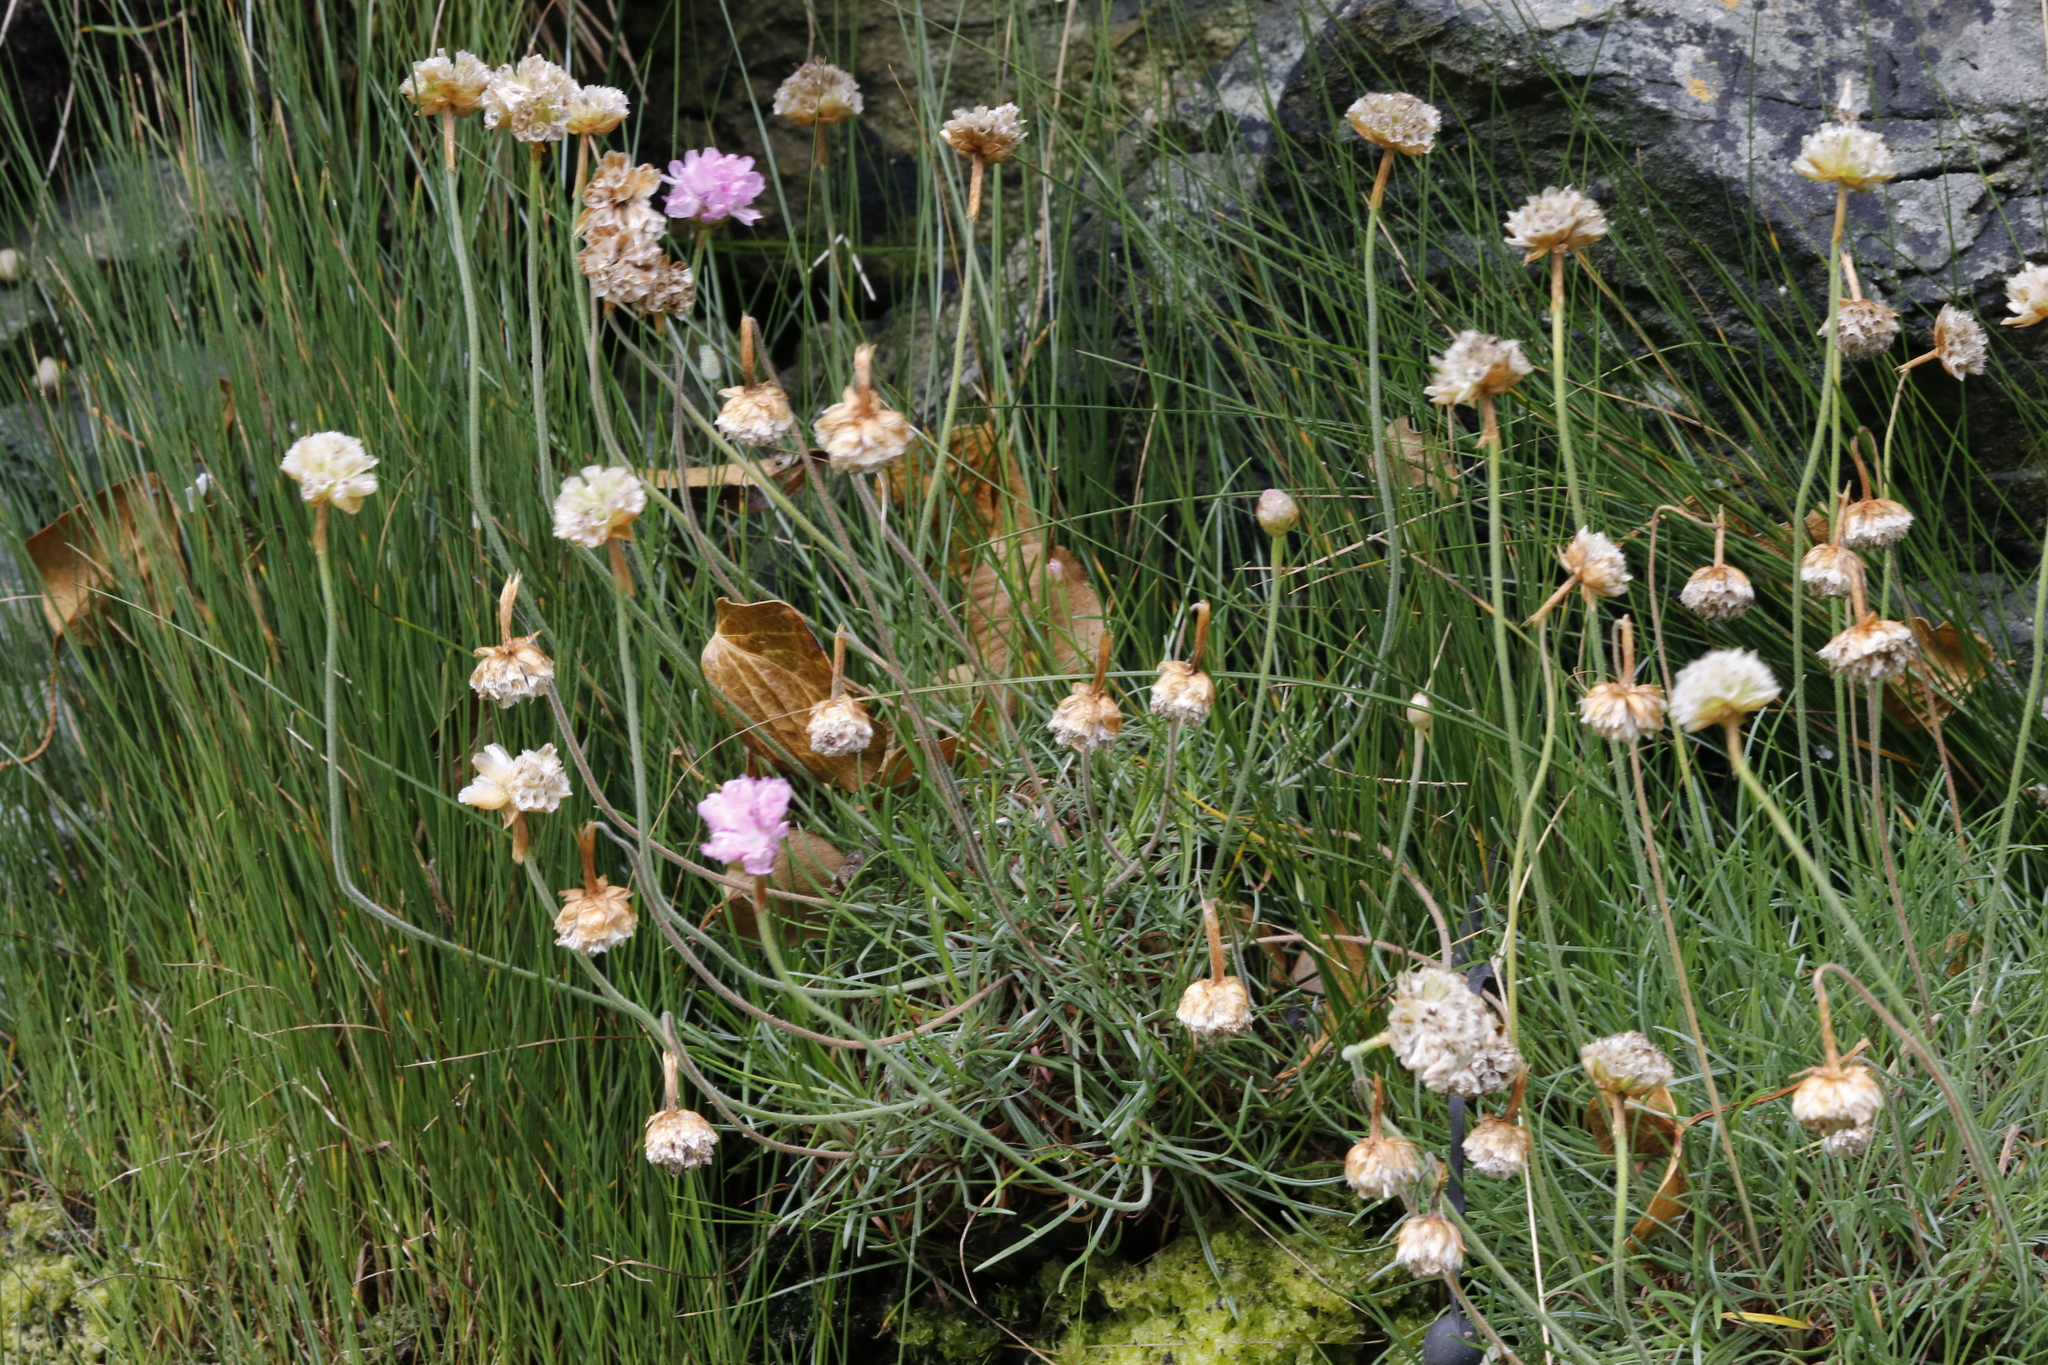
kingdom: Plantae
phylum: Tracheophyta
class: Magnoliopsida
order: Caryophyllales
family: Plumbaginaceae
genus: Armeria
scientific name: Armeria maritima
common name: Thrift
